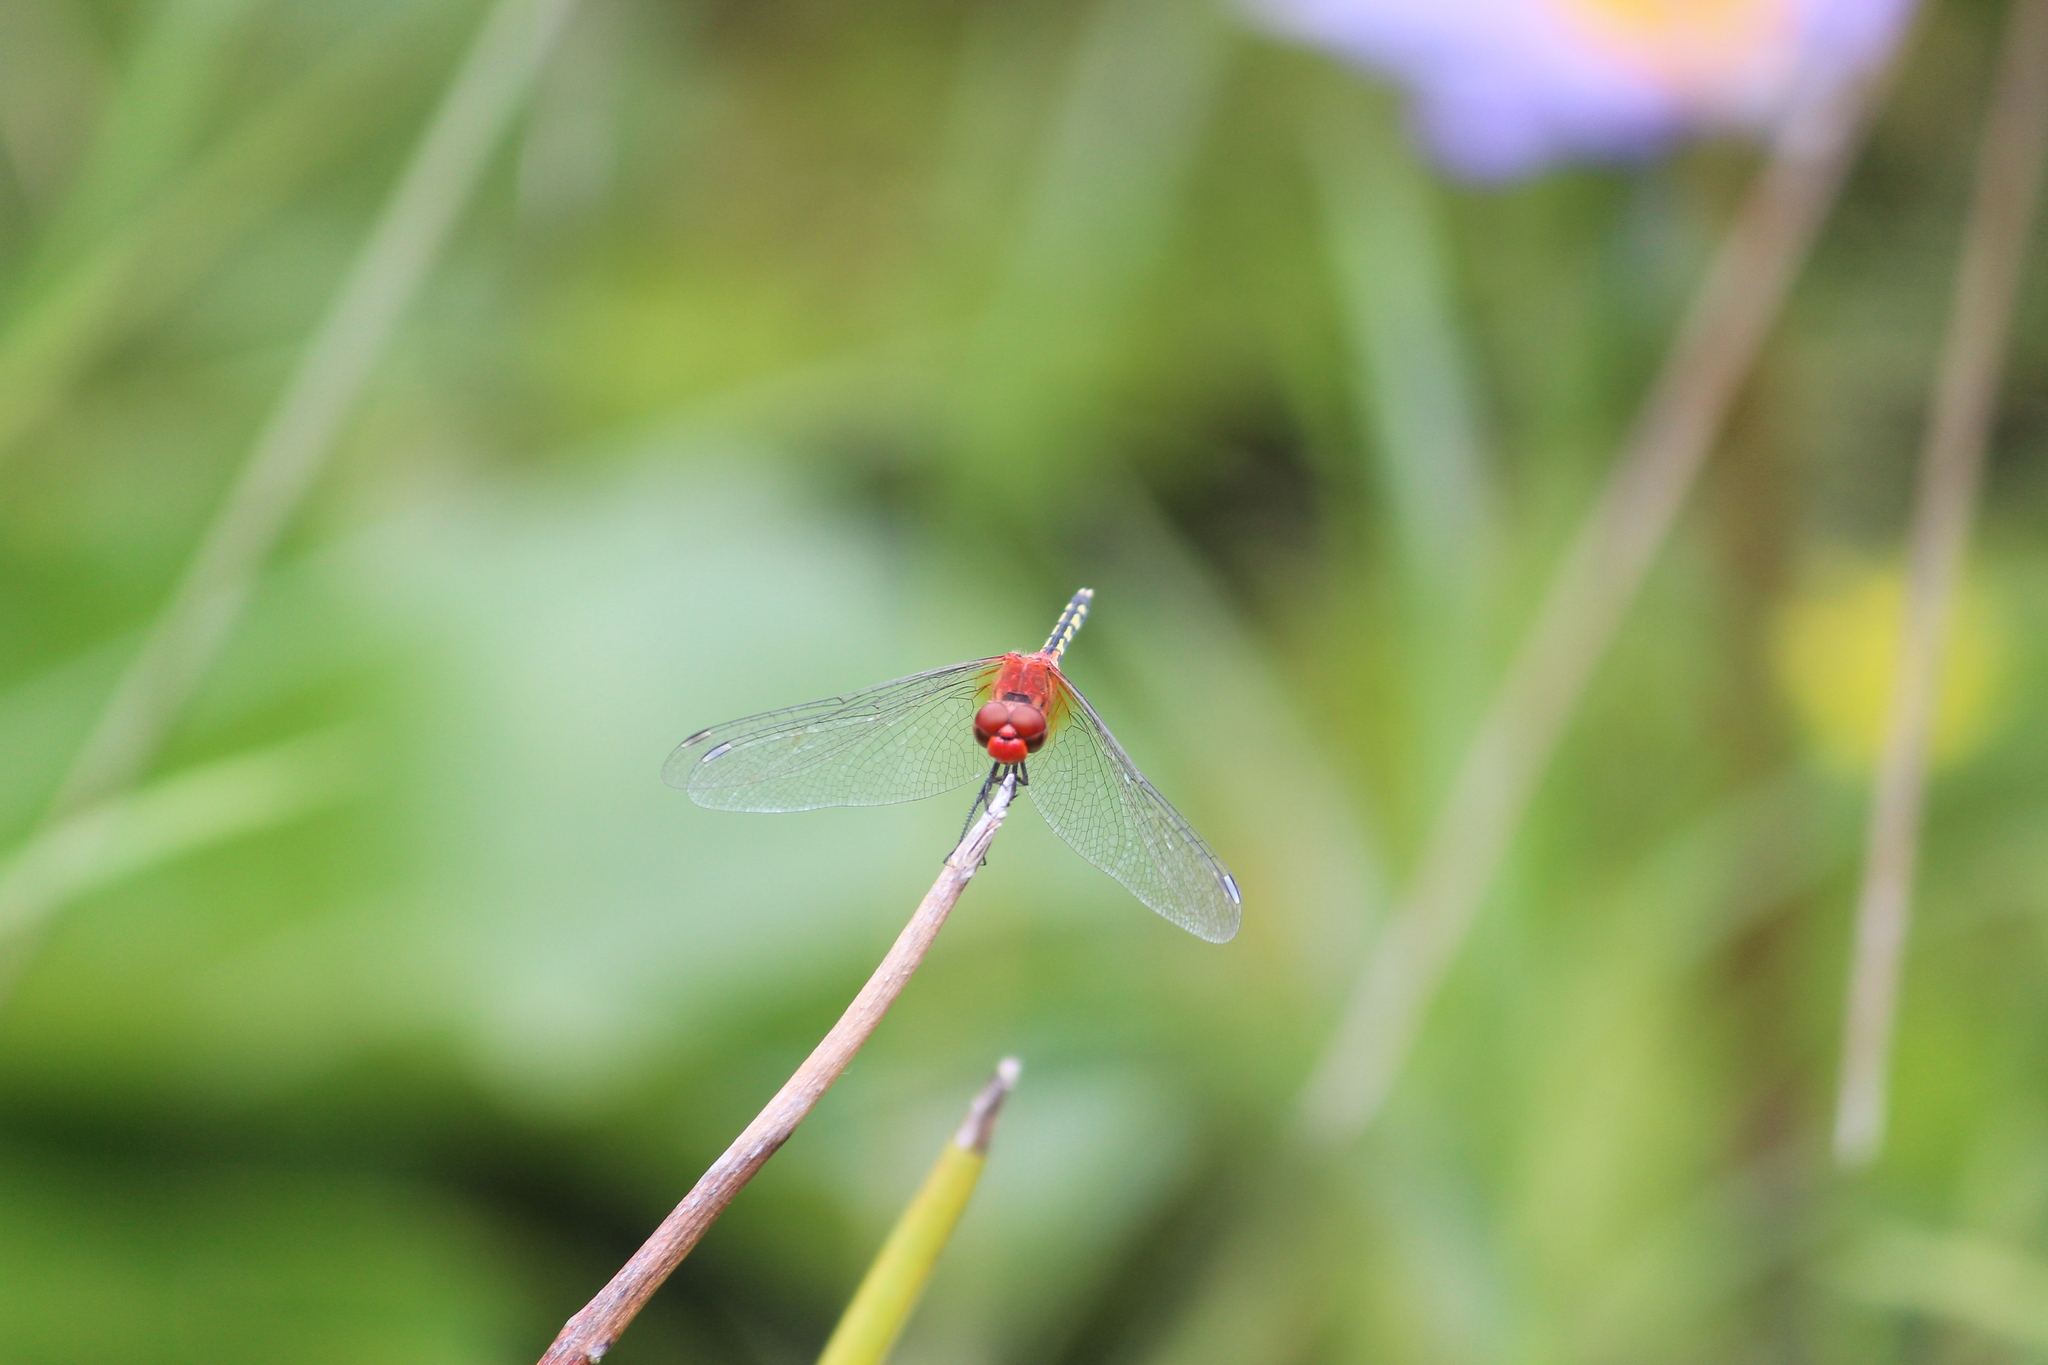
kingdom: Animalia
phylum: Arthropoda
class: Insecta
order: Odonata
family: Libellulidae
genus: Diplacodes
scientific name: Diplacodes luminans
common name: Barbet percher
